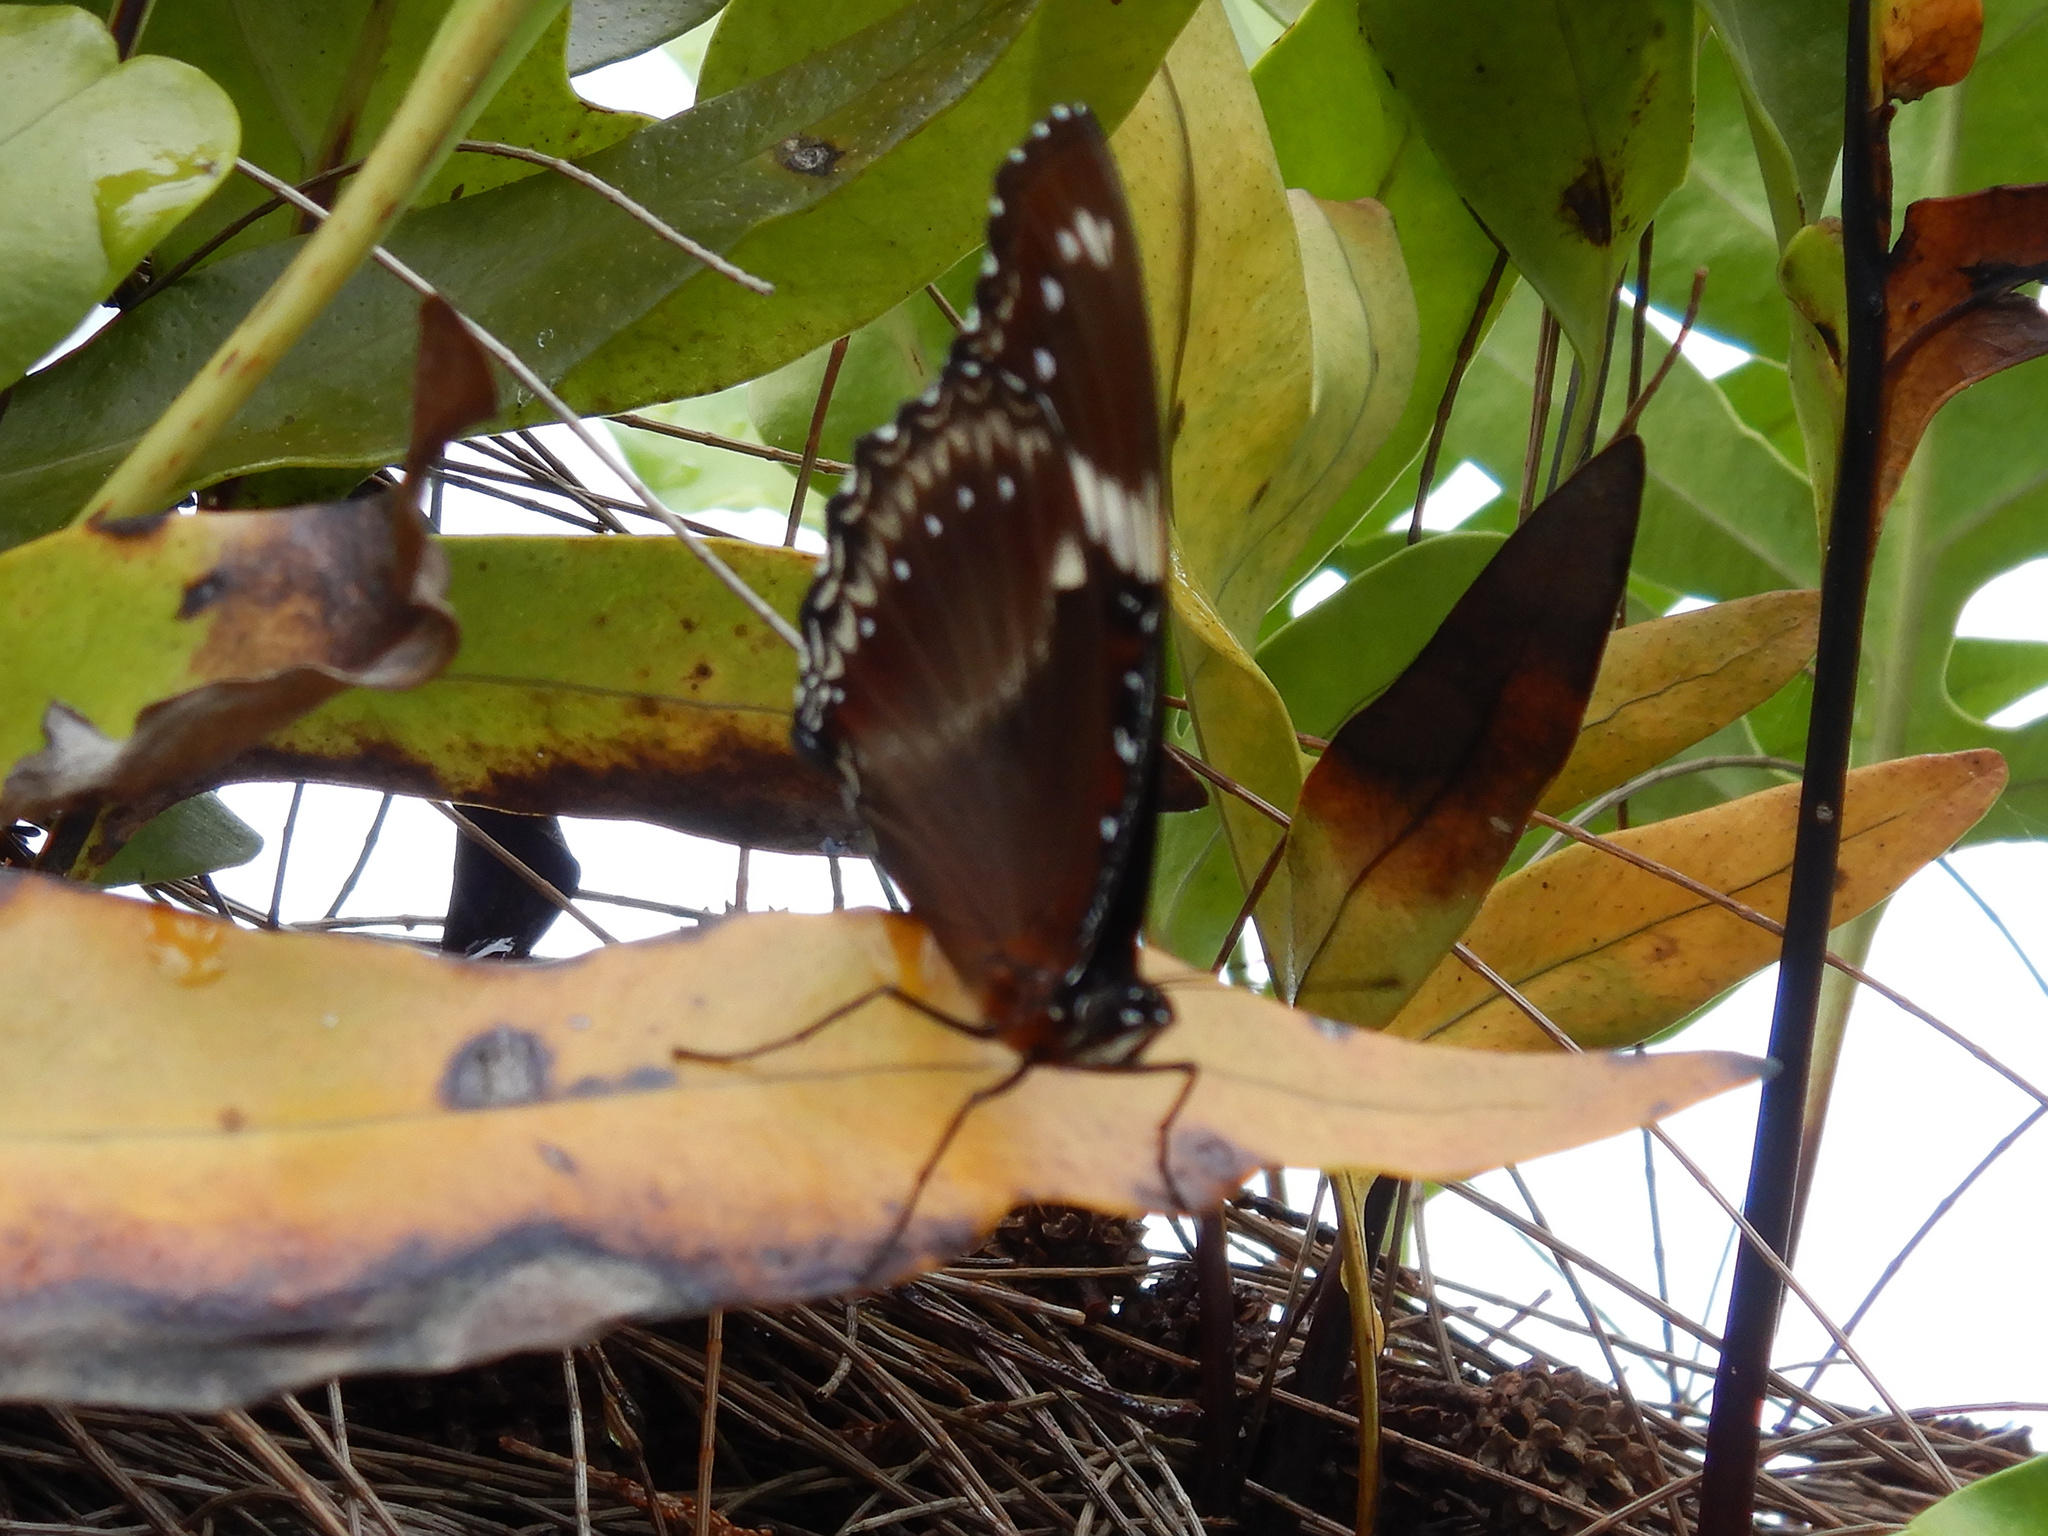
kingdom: Animalia
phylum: Arthropoda
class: Insecta
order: Lepidoptera
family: Nymphalidae
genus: Hypolimnas
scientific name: Hypolimnas bolina
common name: Great eggfly
